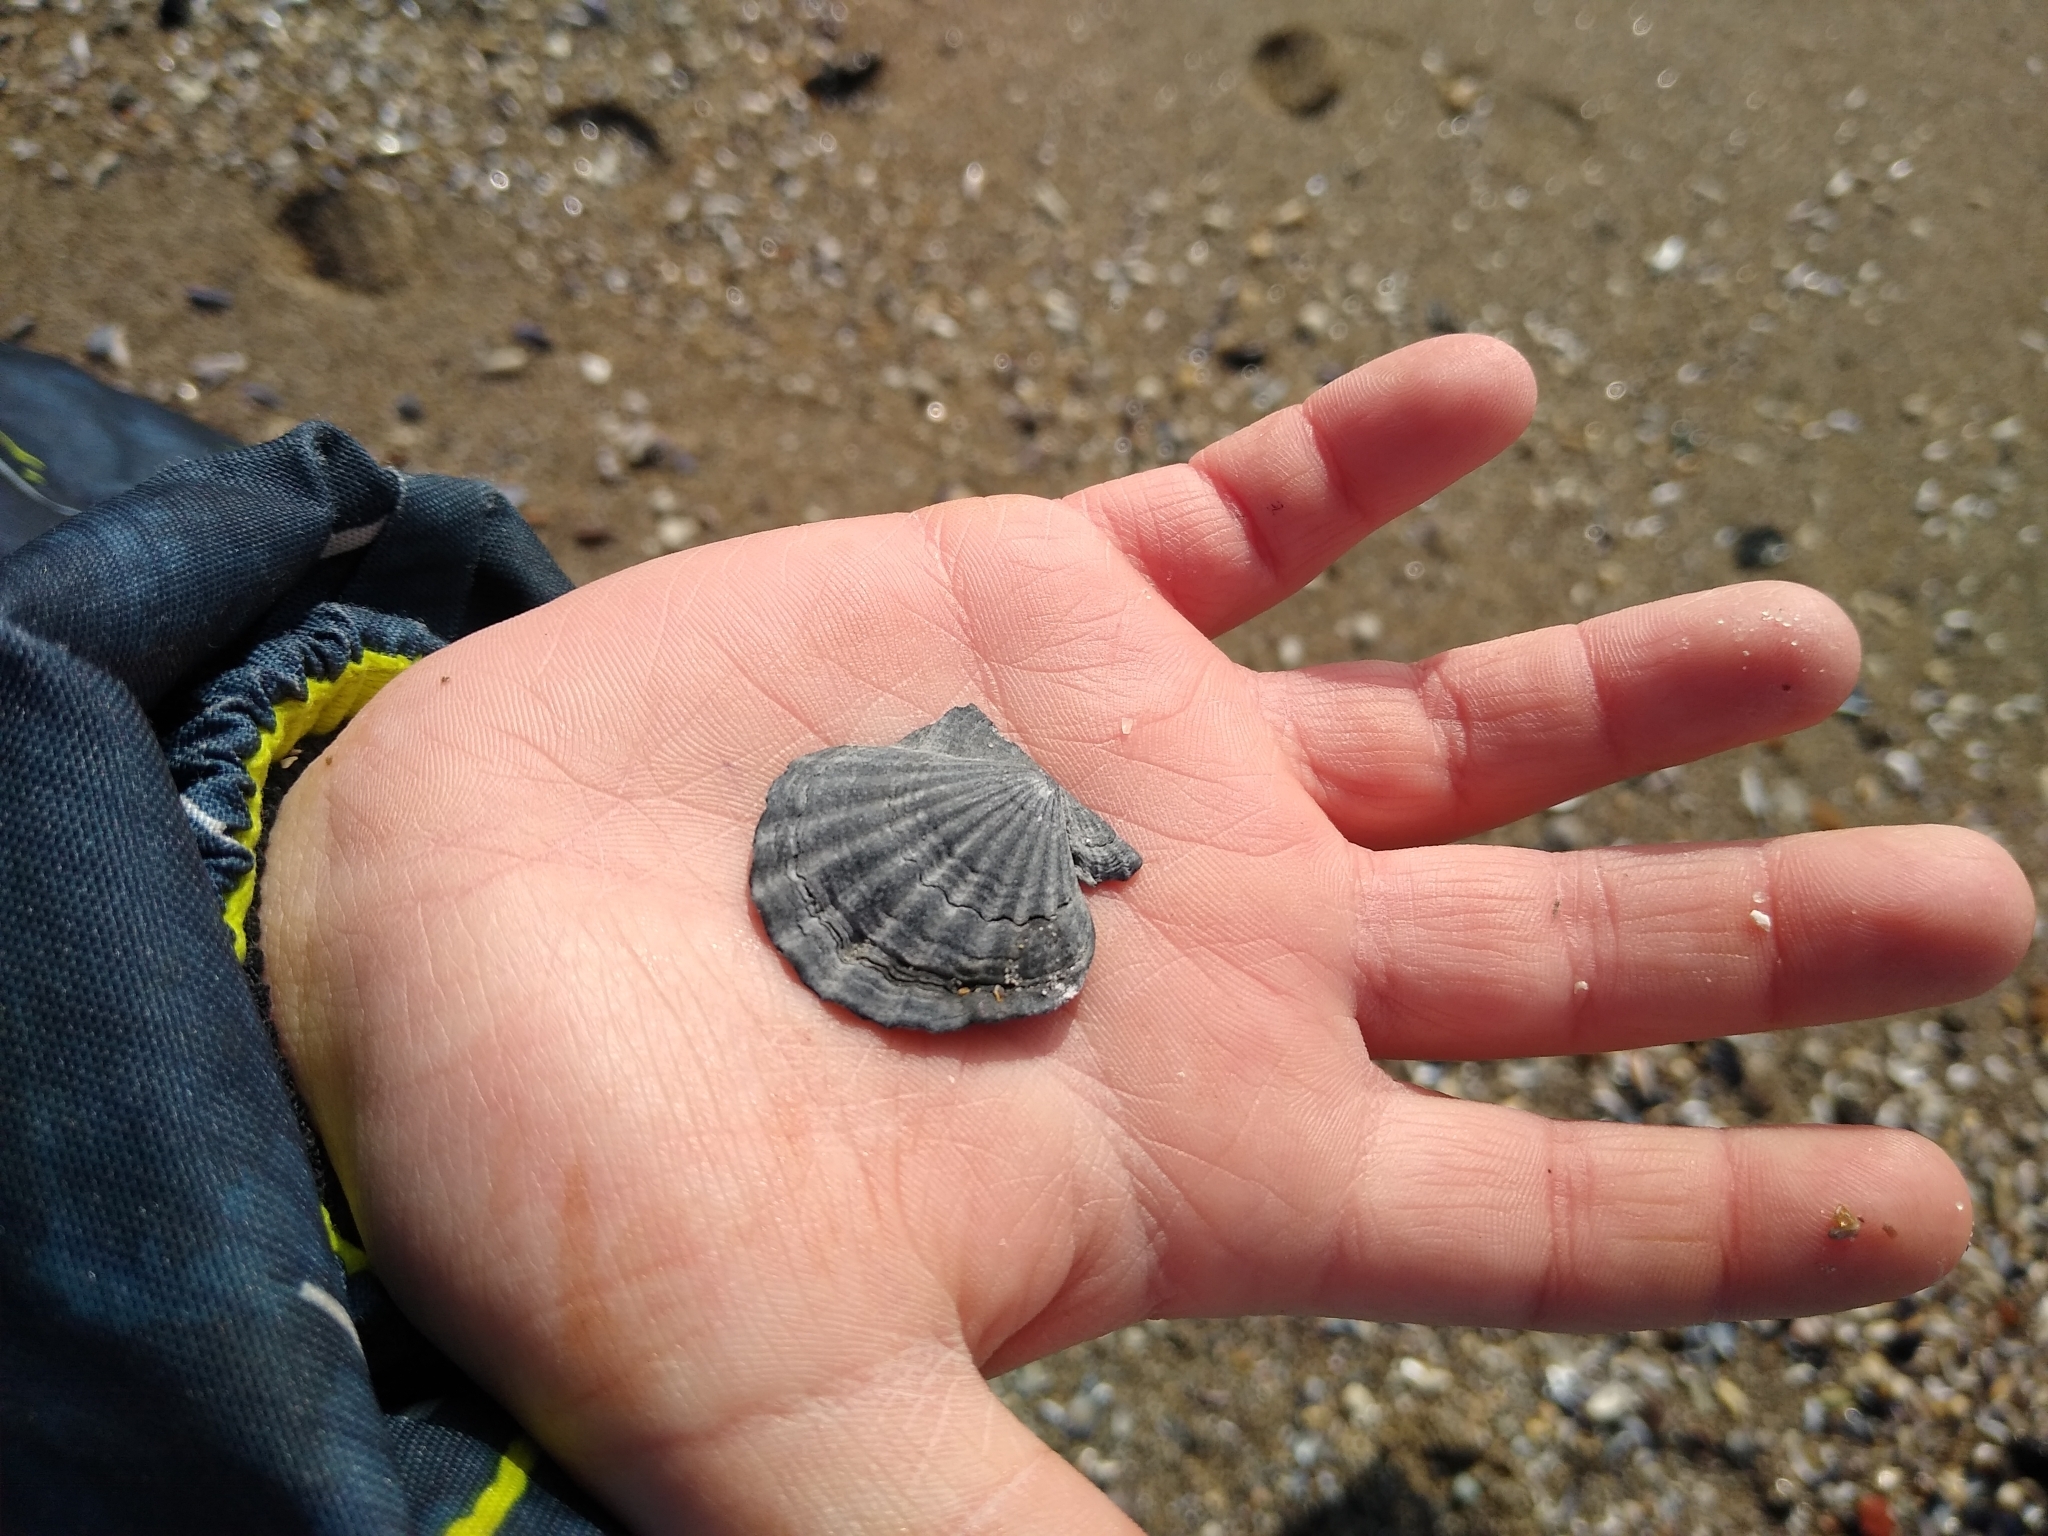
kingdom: Animalia
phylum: Mollusca
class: Bivalvia
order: Pectinida
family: Pectinidae
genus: Flexopecten
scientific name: Flexopecten glaber
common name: Smooth scallop
